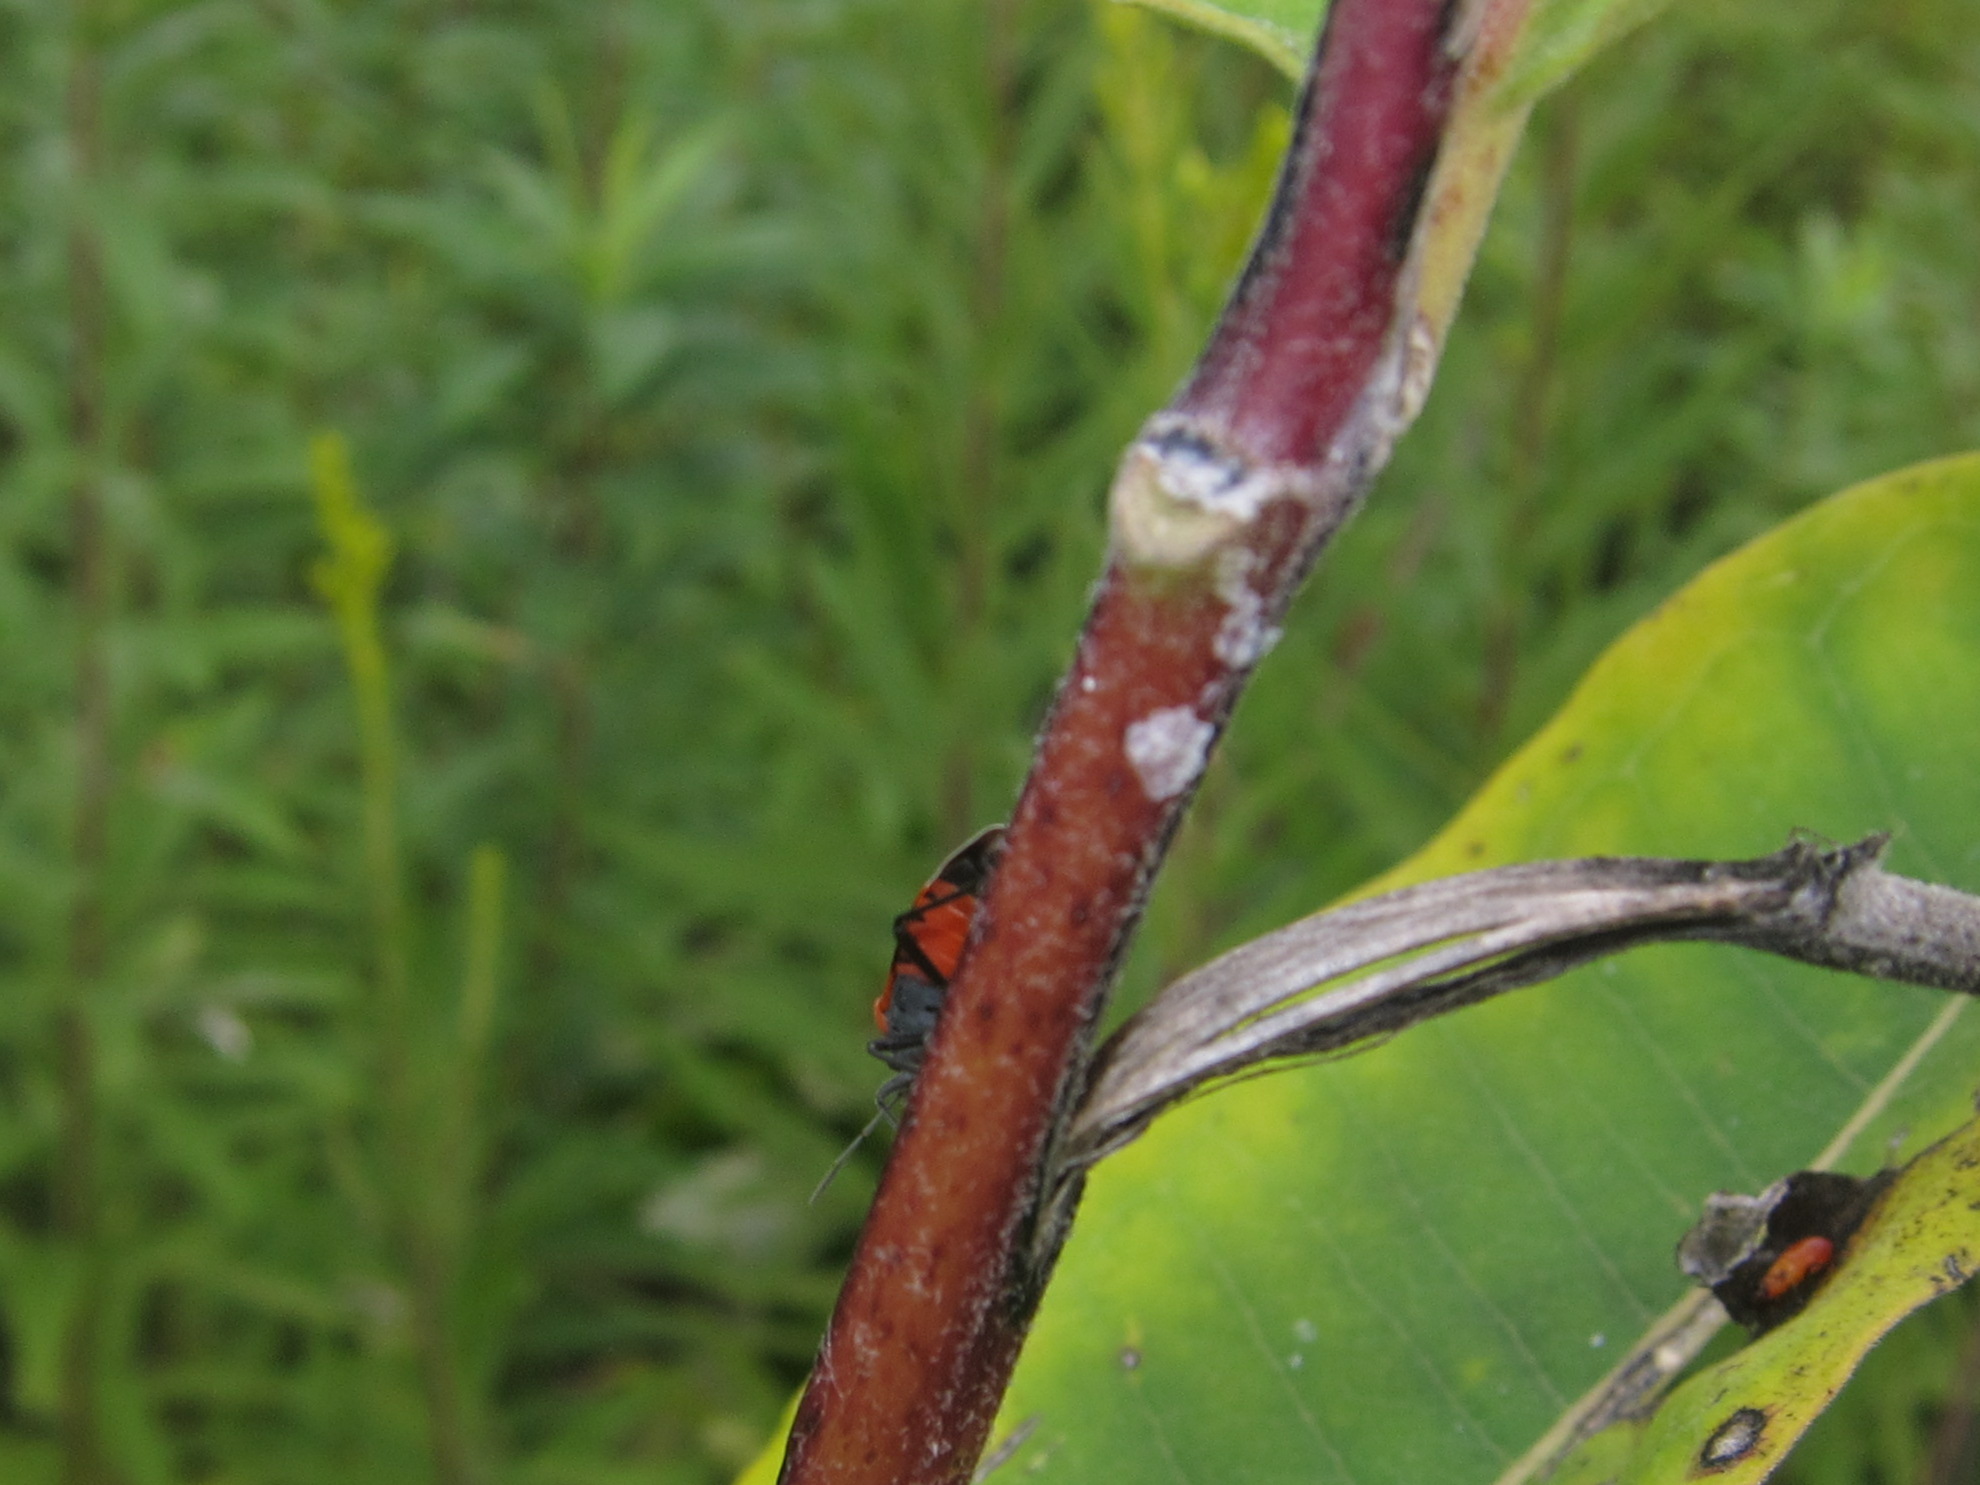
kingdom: Animalia
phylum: Arthropoda
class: Insecta
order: Hemiptera
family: Lygaeidae
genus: Lygaeus
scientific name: Lygaeus kalmii
